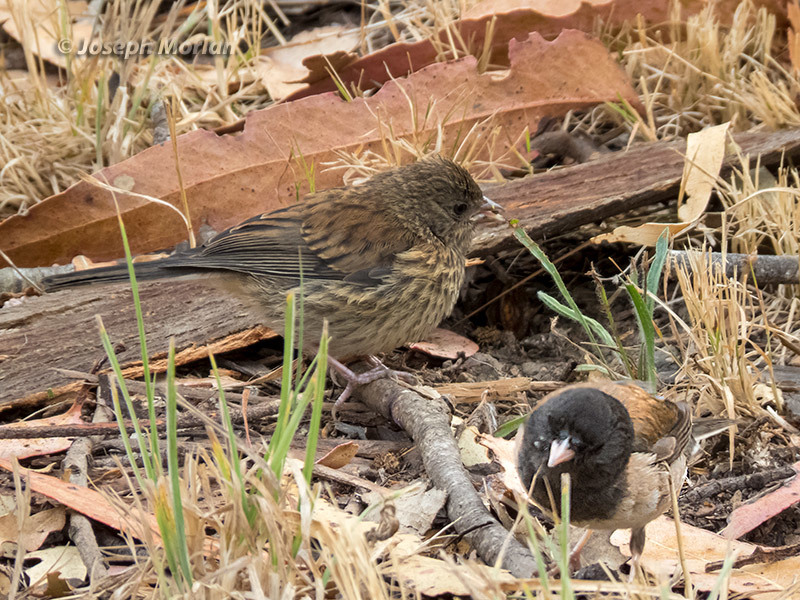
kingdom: Animalia
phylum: Chordata
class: Aves
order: Passeriformes
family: Passerellidae
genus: Junco
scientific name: Junco hyemalis
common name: Dark-eyed junco
